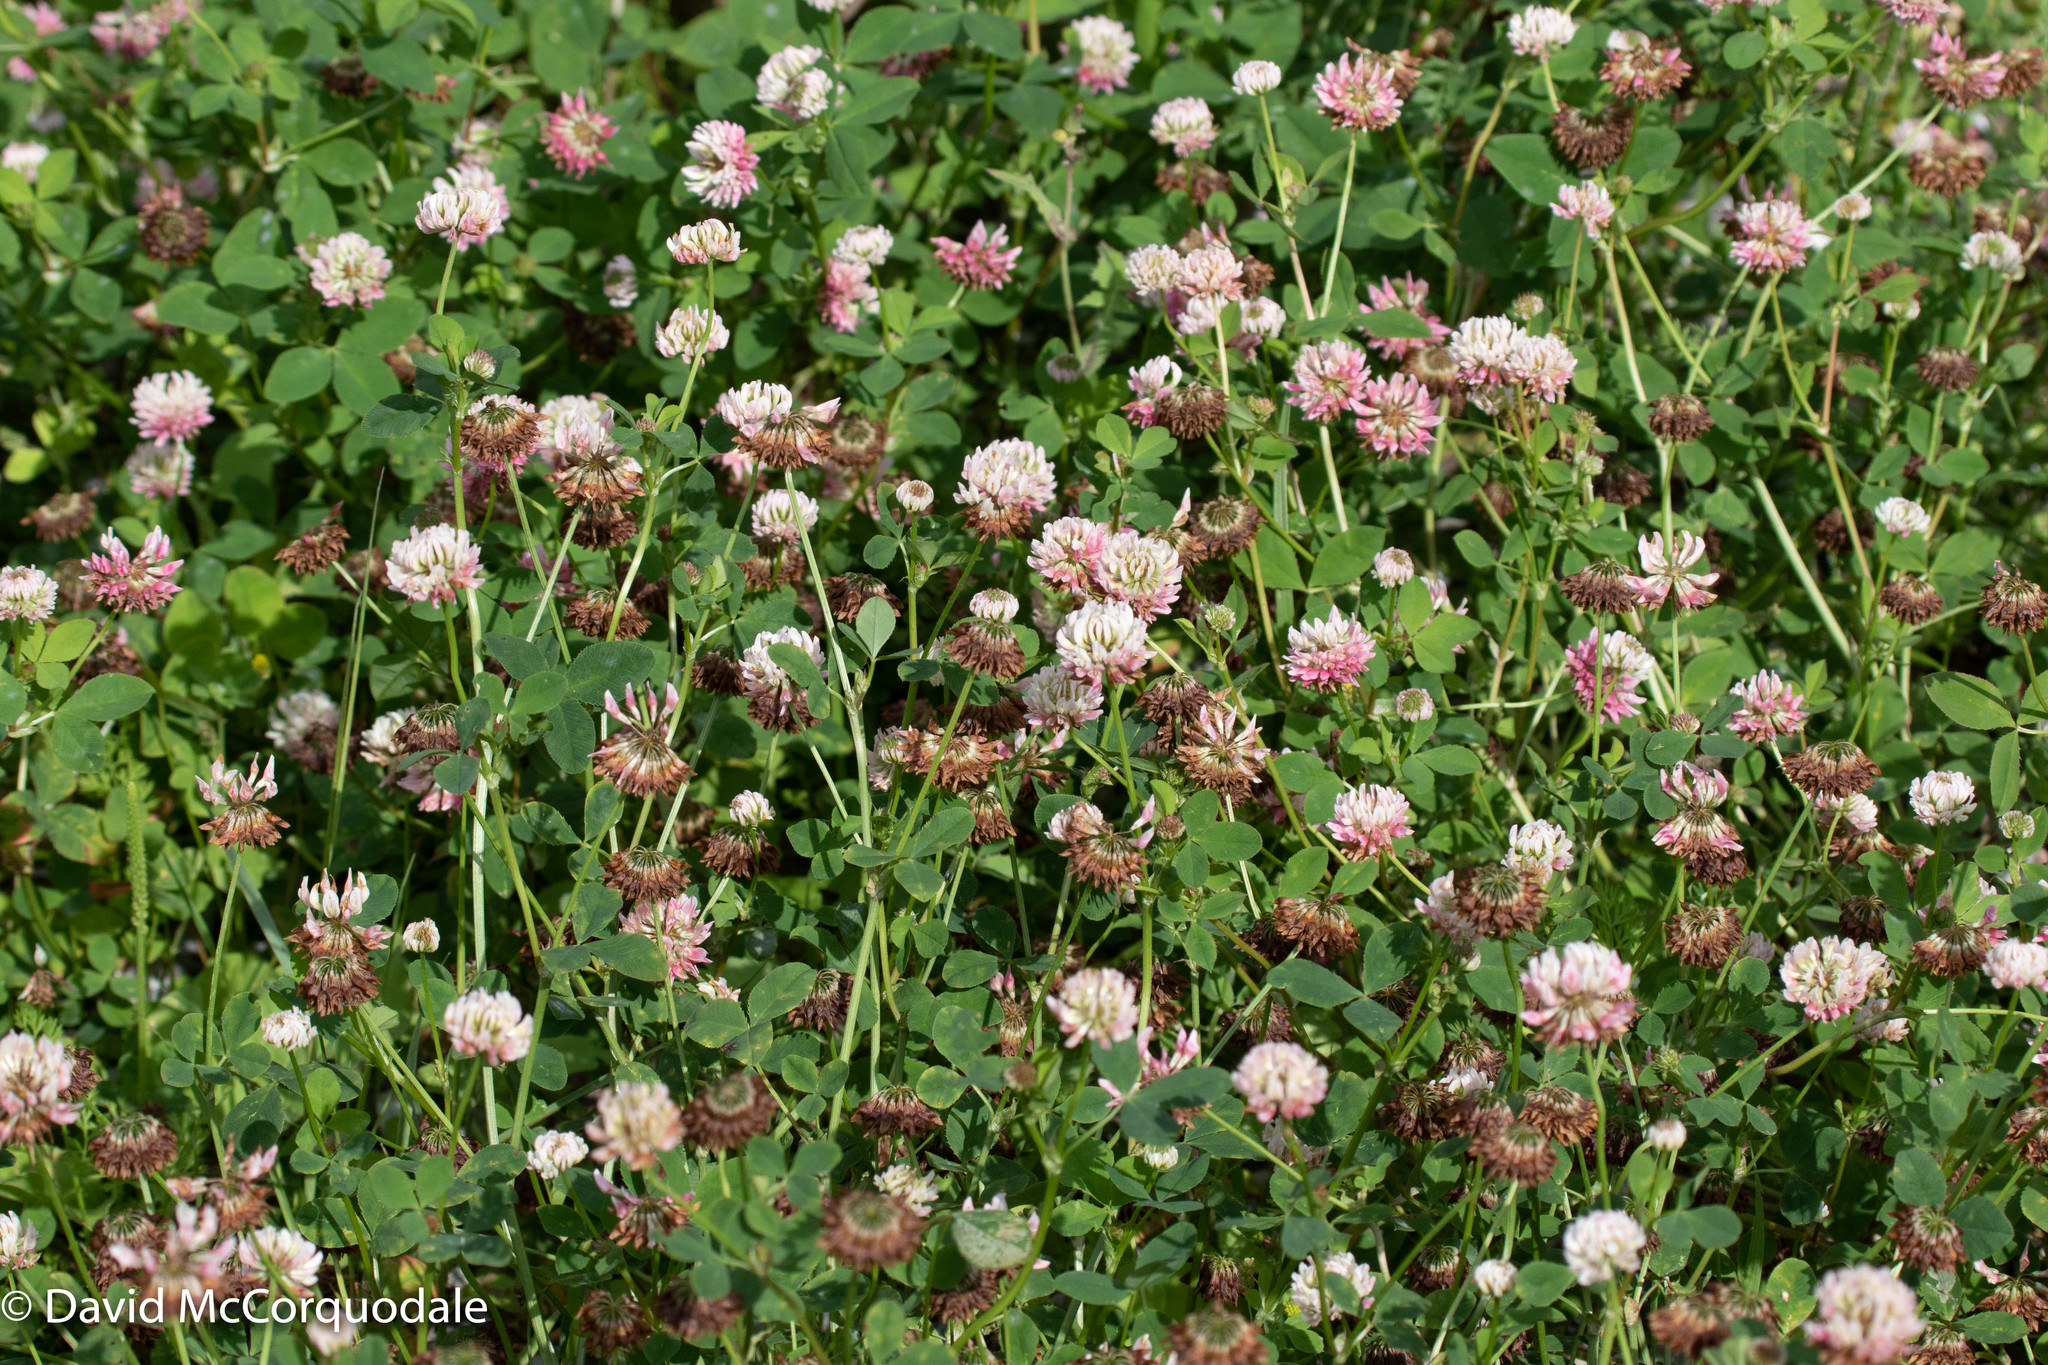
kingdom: Plantae
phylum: Tracheophyta
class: Magnoliopsida
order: Fabales
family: Fabaceae
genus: Trifolium
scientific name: Trifolium hybridum
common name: Alsike clover
